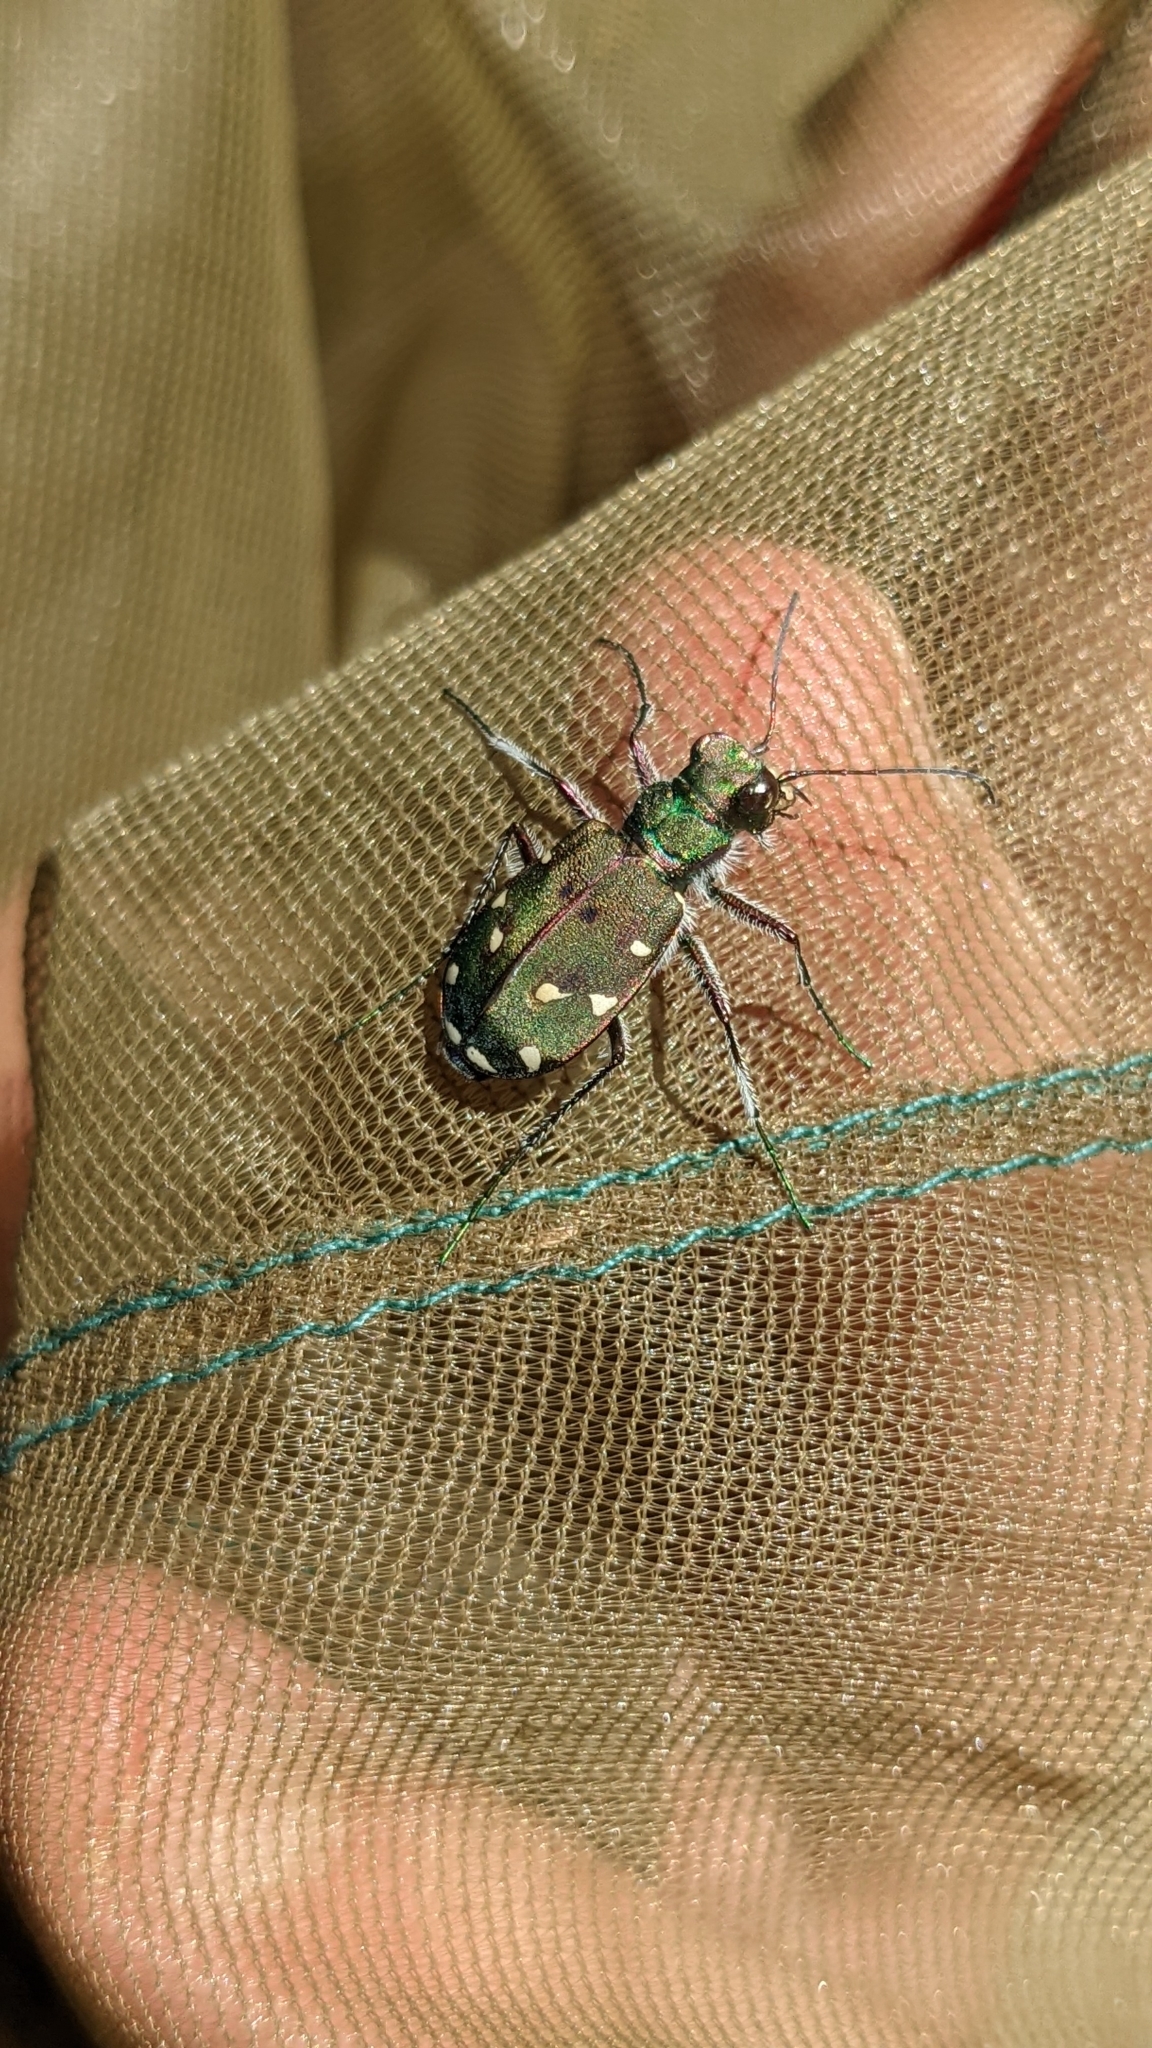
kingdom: Animalia
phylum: Arthropoda
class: Insecta
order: Coleoptera
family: Carabidae
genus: Cicindela
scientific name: Cicindela maroccana
